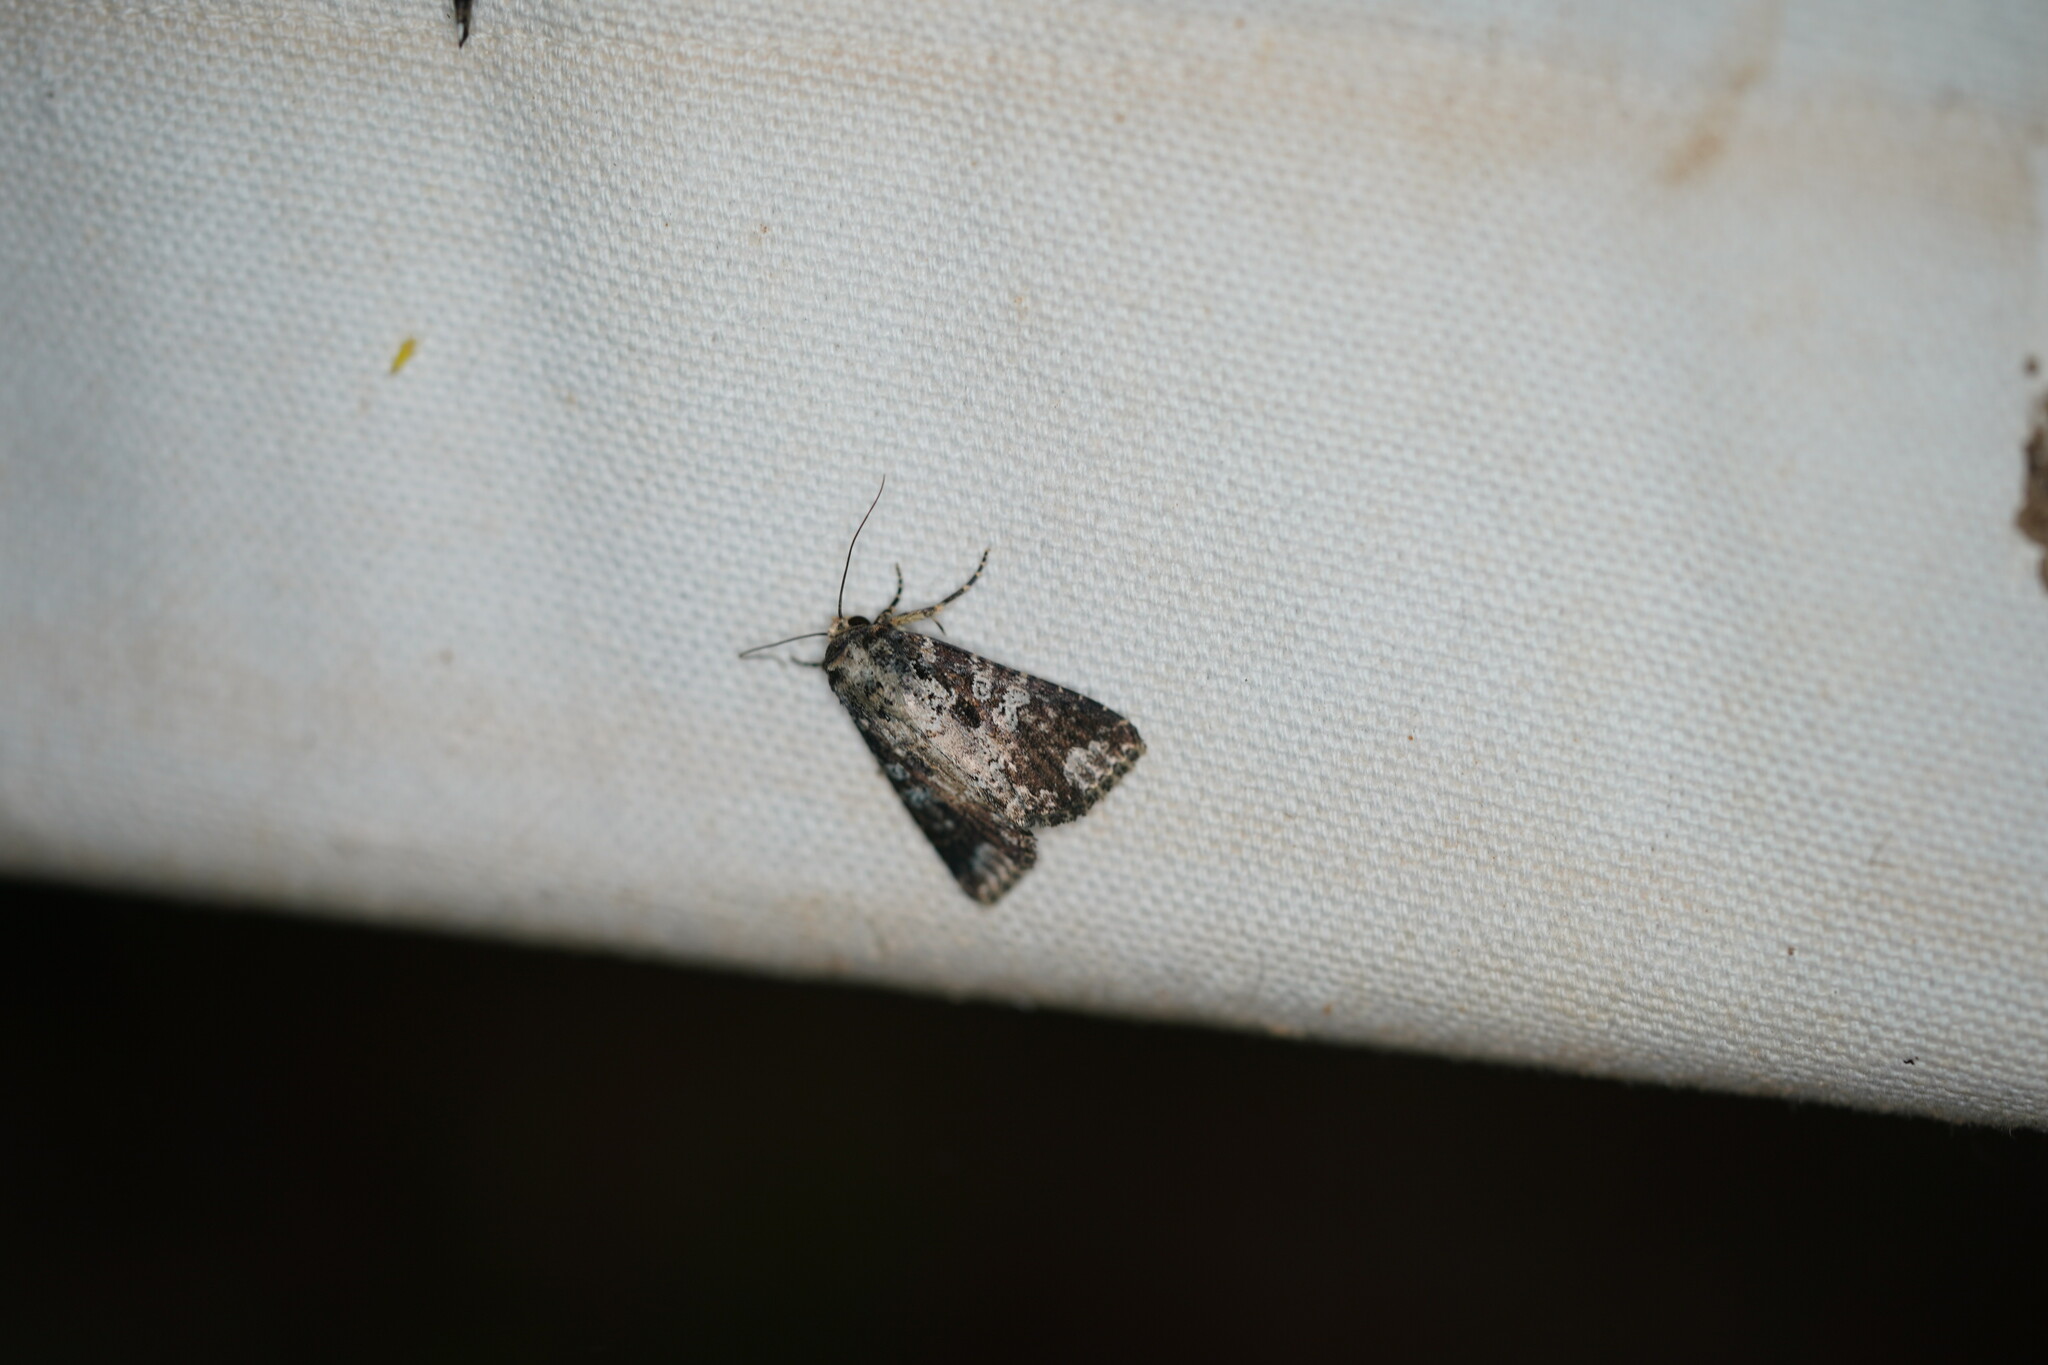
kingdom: Animalia
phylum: Arthropoda
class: Insecta
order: Lepidoptera
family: Noctuidae
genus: Condica
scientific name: Condica confederata
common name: The confederate
